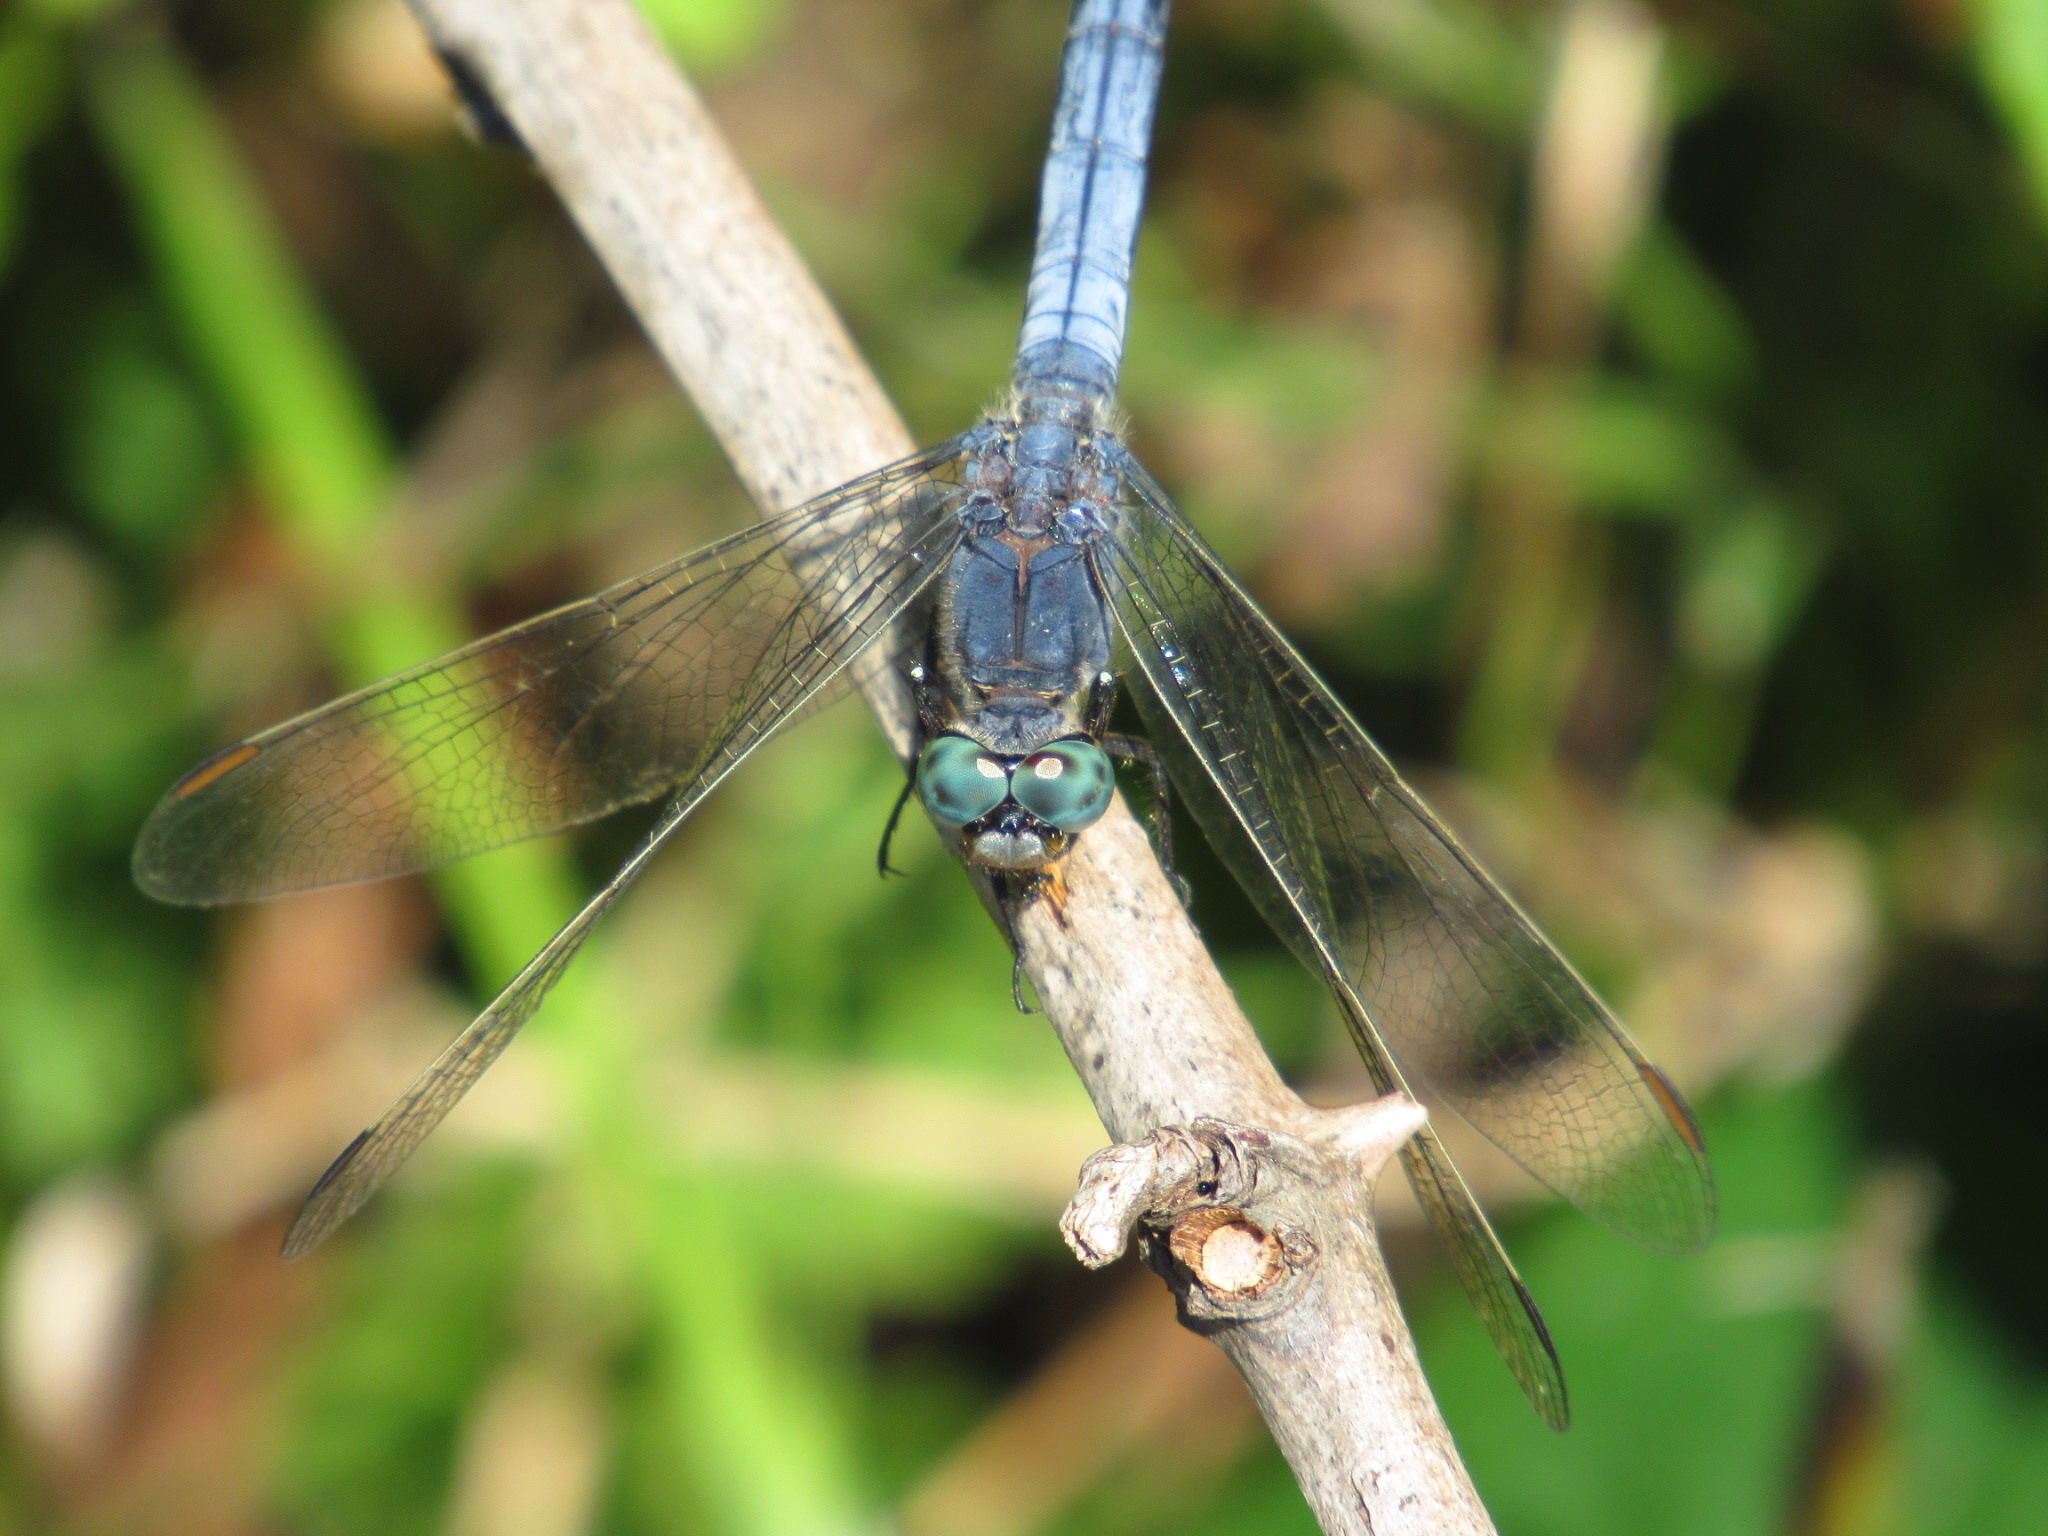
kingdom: Animalia
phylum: Arthropoda
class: Insecta
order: Odonata
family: Libellulidae
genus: Orthetrum
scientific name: Orthetrum coerulescens
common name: Keeled skimmer
